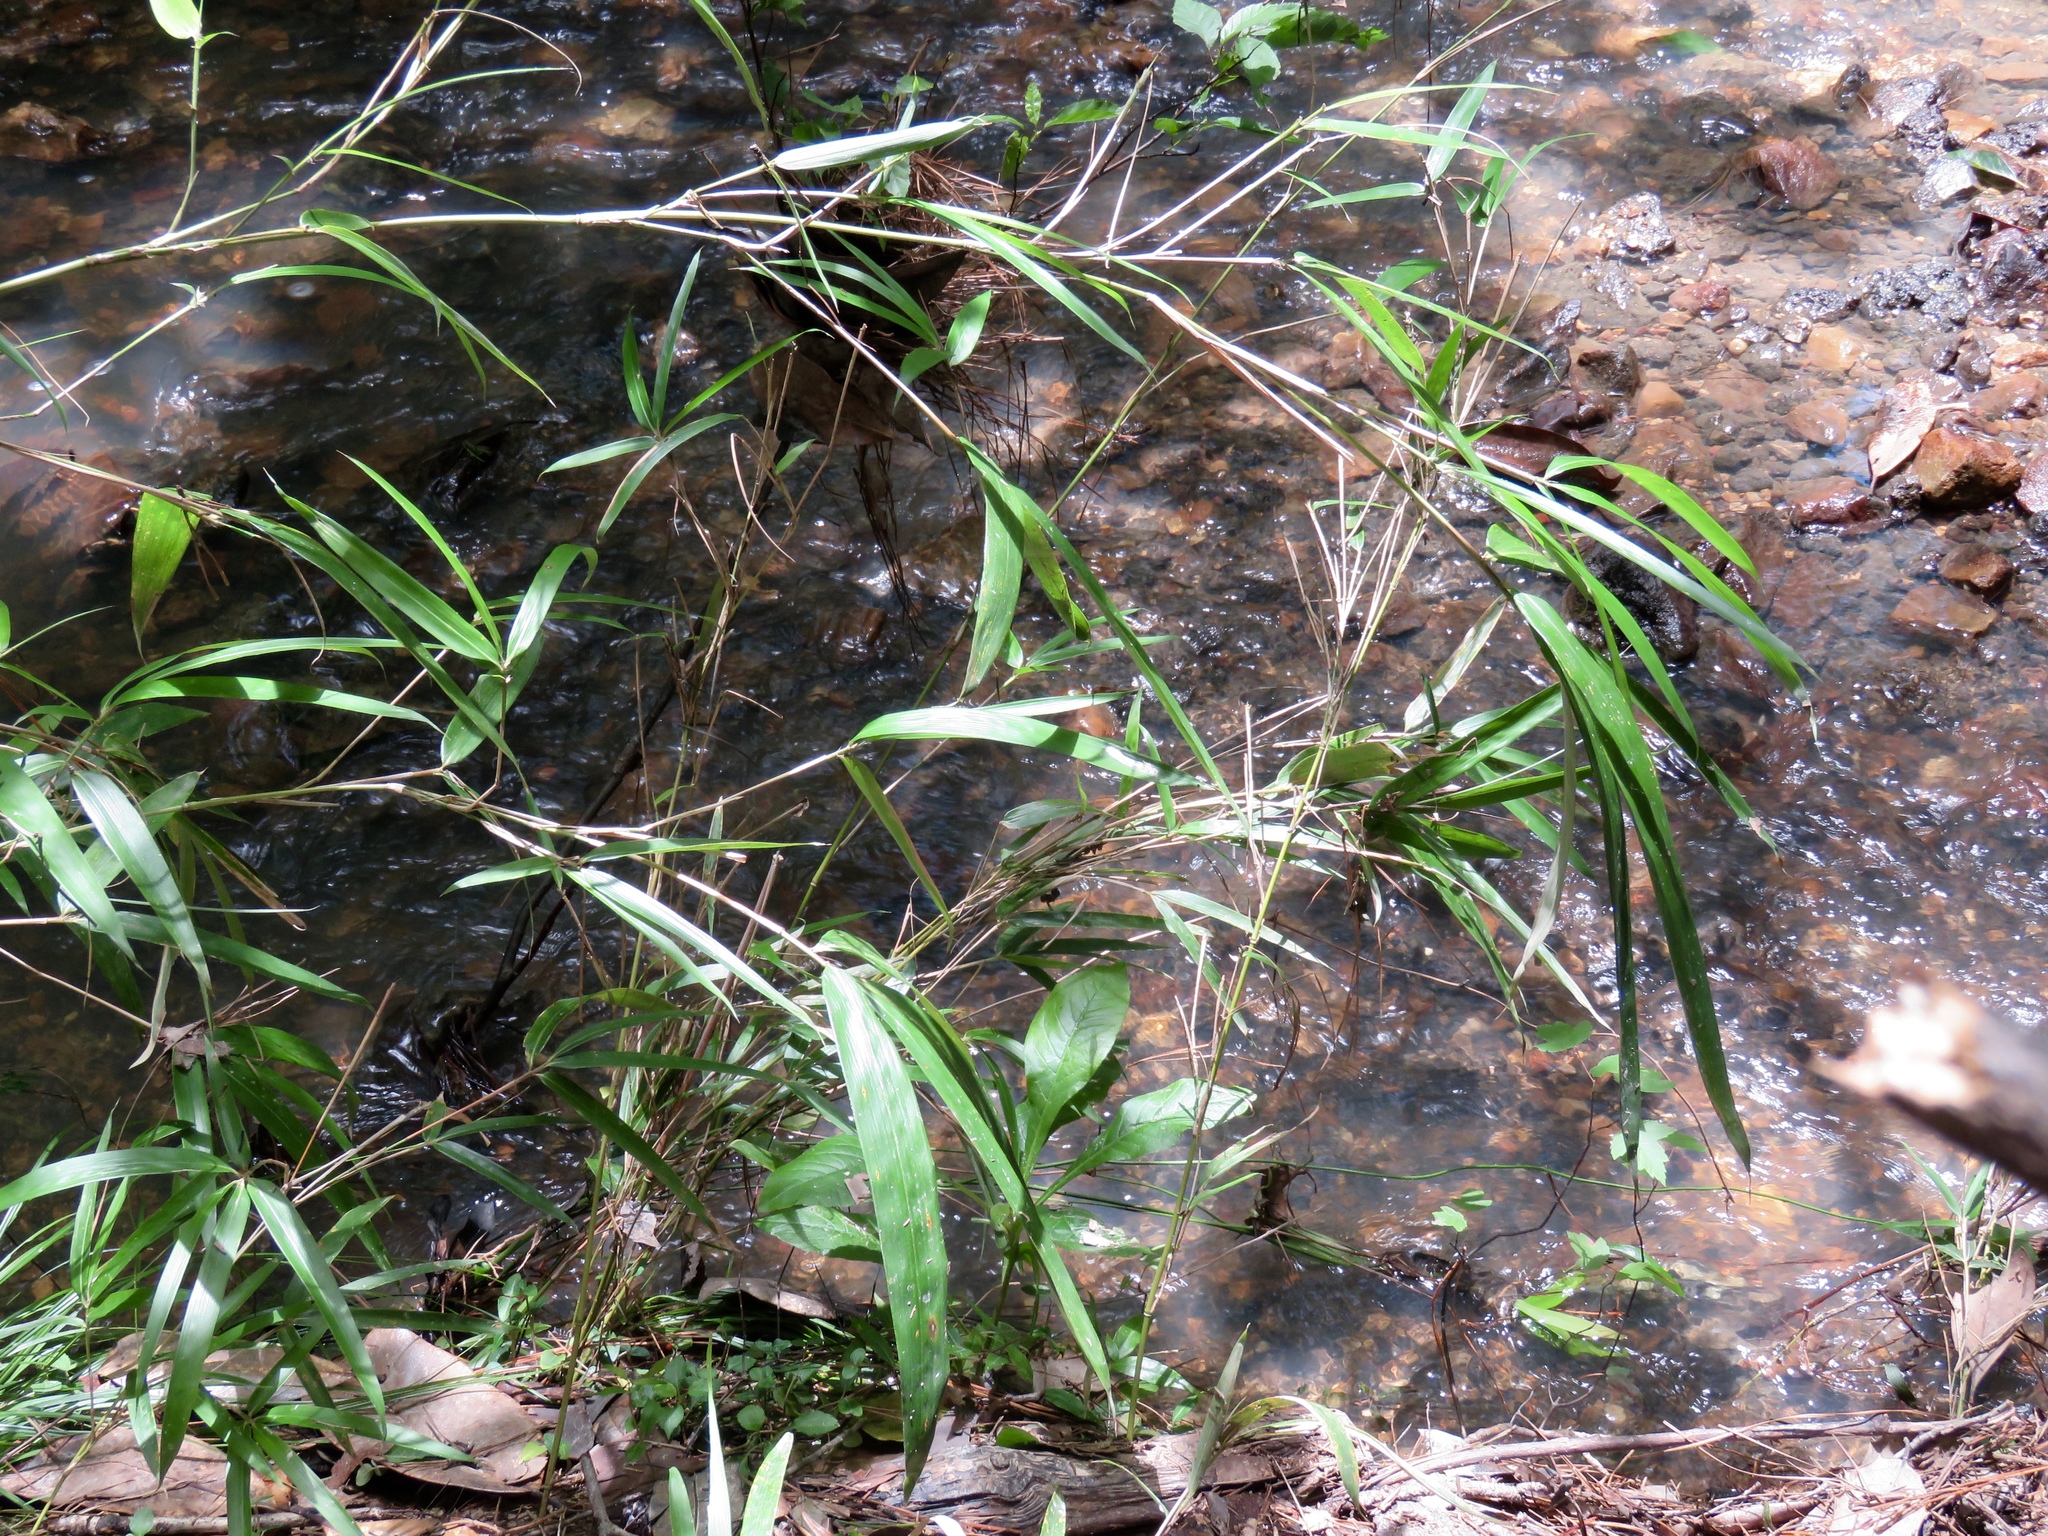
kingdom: Plantae
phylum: Tracheophyta
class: Liliopsida
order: Poales
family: Poaceae
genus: Arundinaria
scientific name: Arundinaria gigantea
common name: Giant cane
